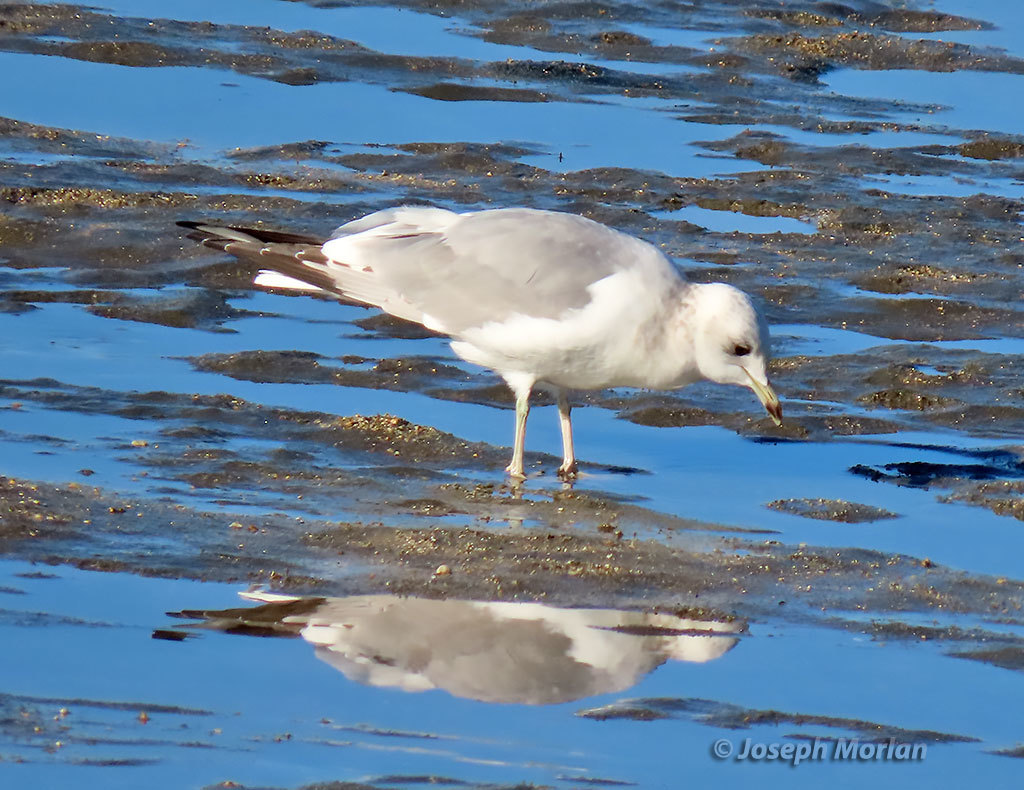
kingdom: Animalia
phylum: Chordata
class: Aves
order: Charadriiformes
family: Laridae
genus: Larus
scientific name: Larus brachyrhynchus
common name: Short-billed gull
